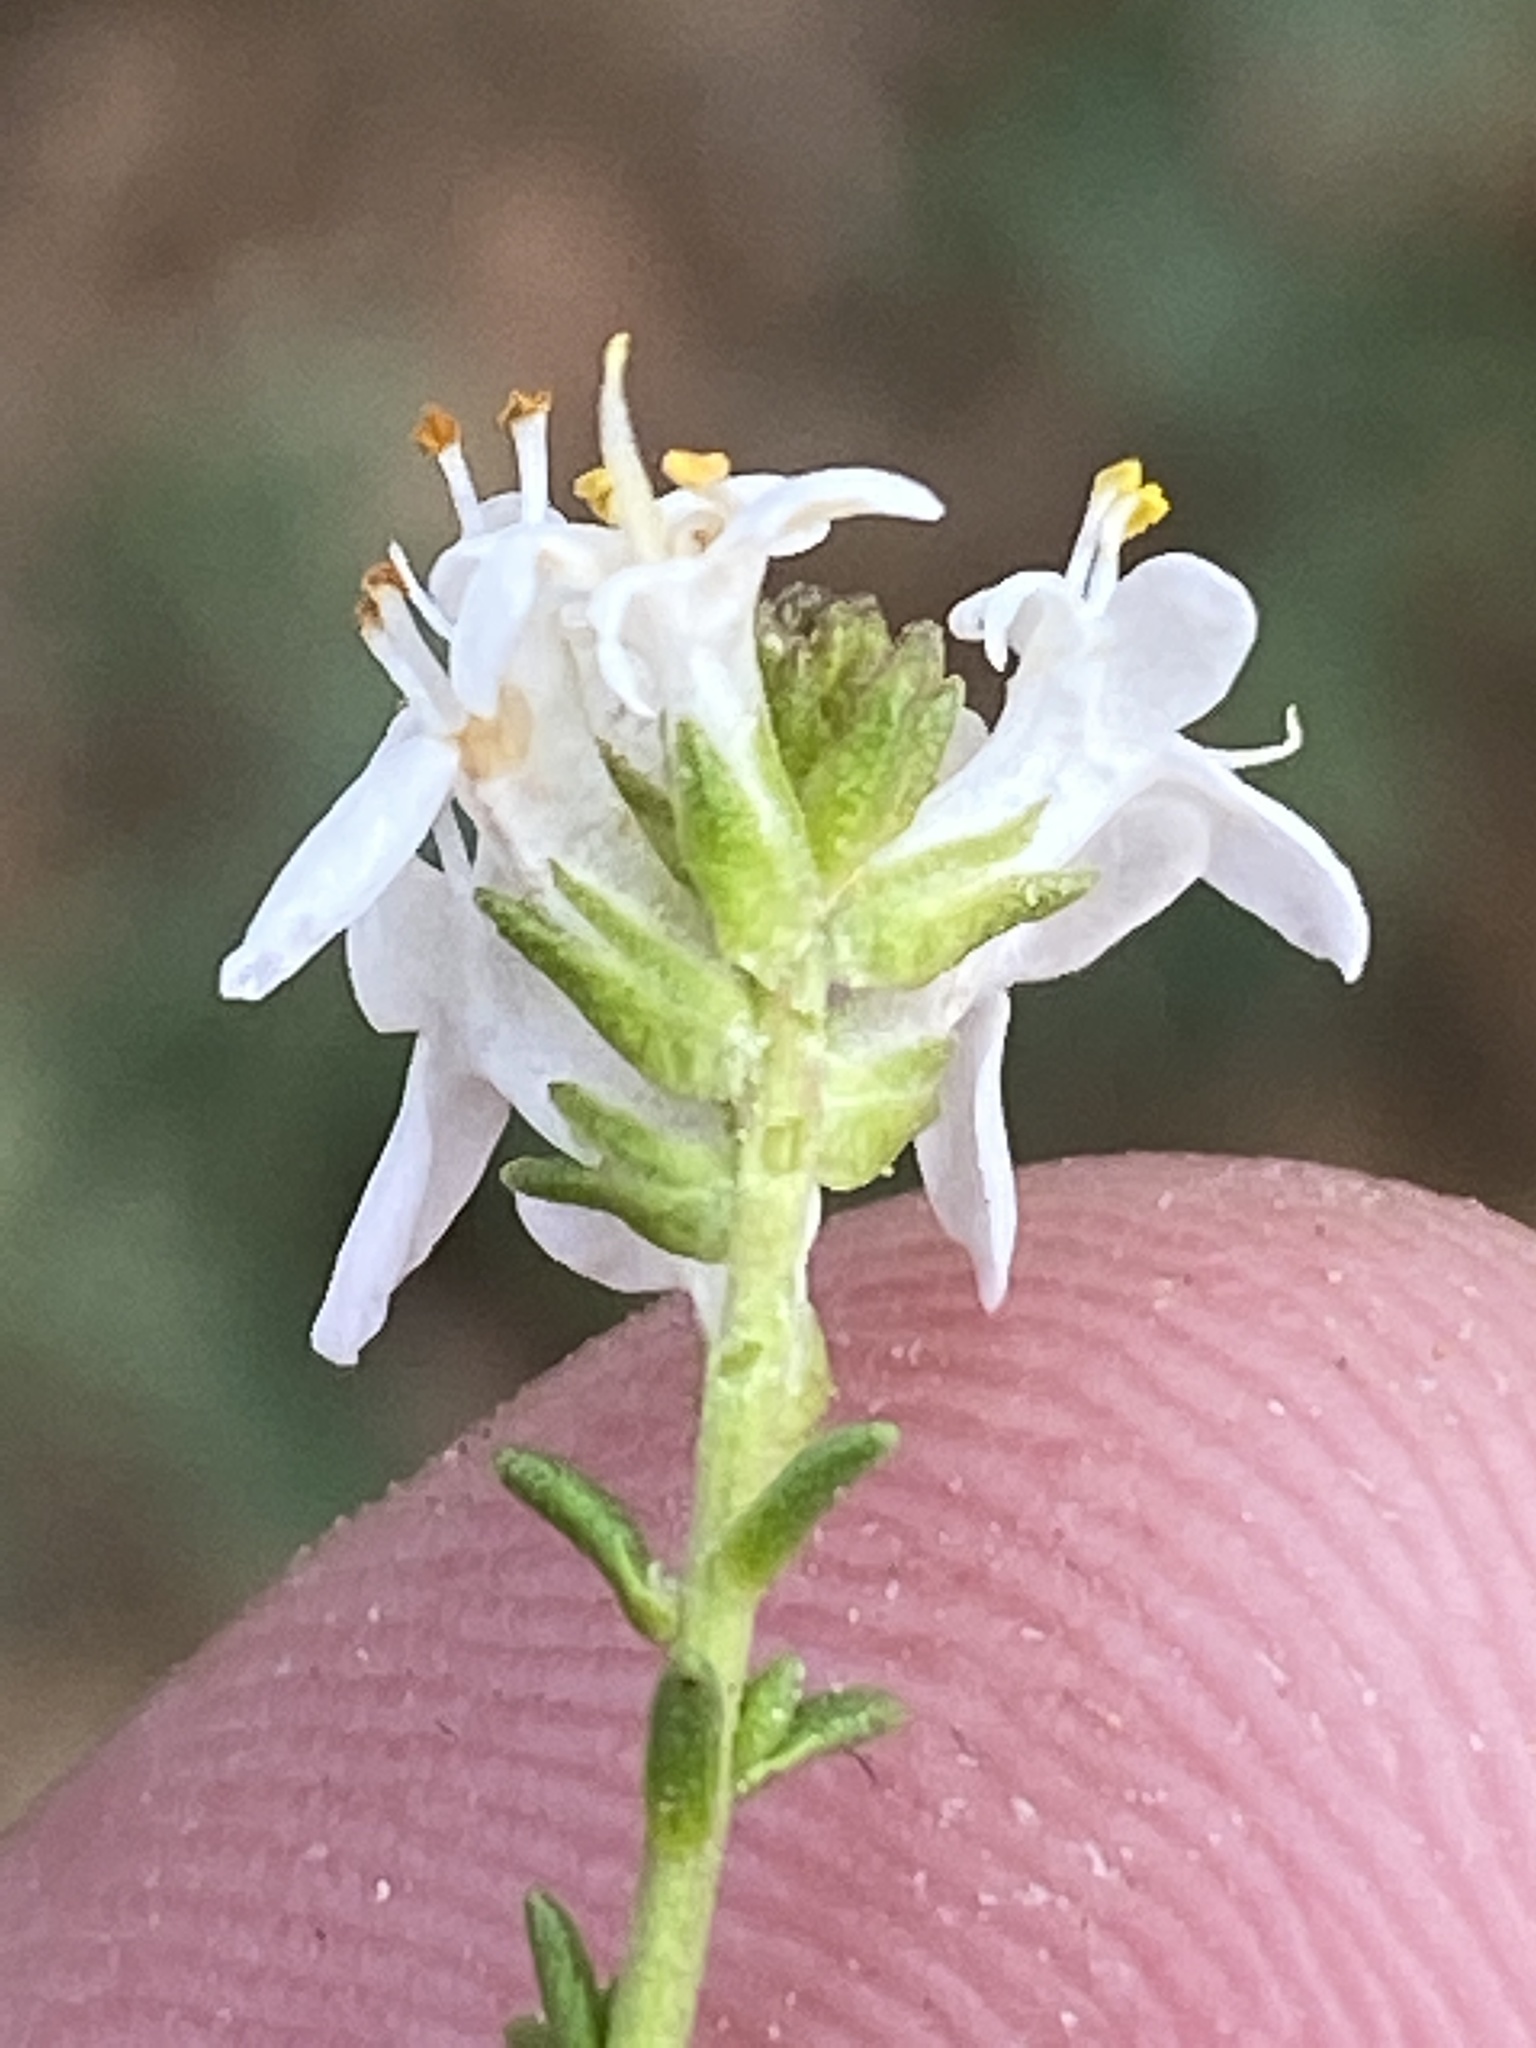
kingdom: Plantae
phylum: Tracheophyta
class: Magnoliopsida
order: Lamiales
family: Scrophulariaceae
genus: Selago
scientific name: Selago gracilis
